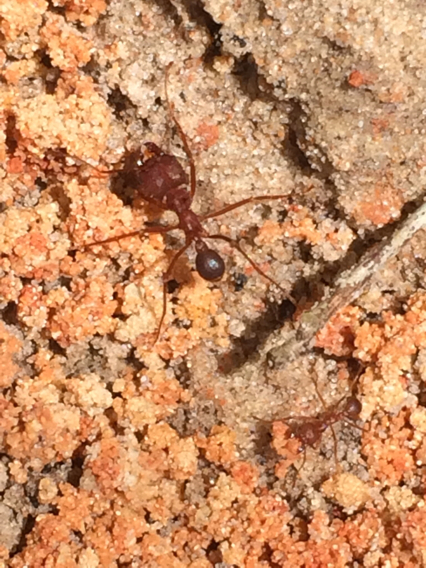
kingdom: Animalia
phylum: Arthropoda
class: Insecta
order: Hymenoptera
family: Formicidae
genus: Atta
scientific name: Atta texana
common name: Texas leafcutting ant
